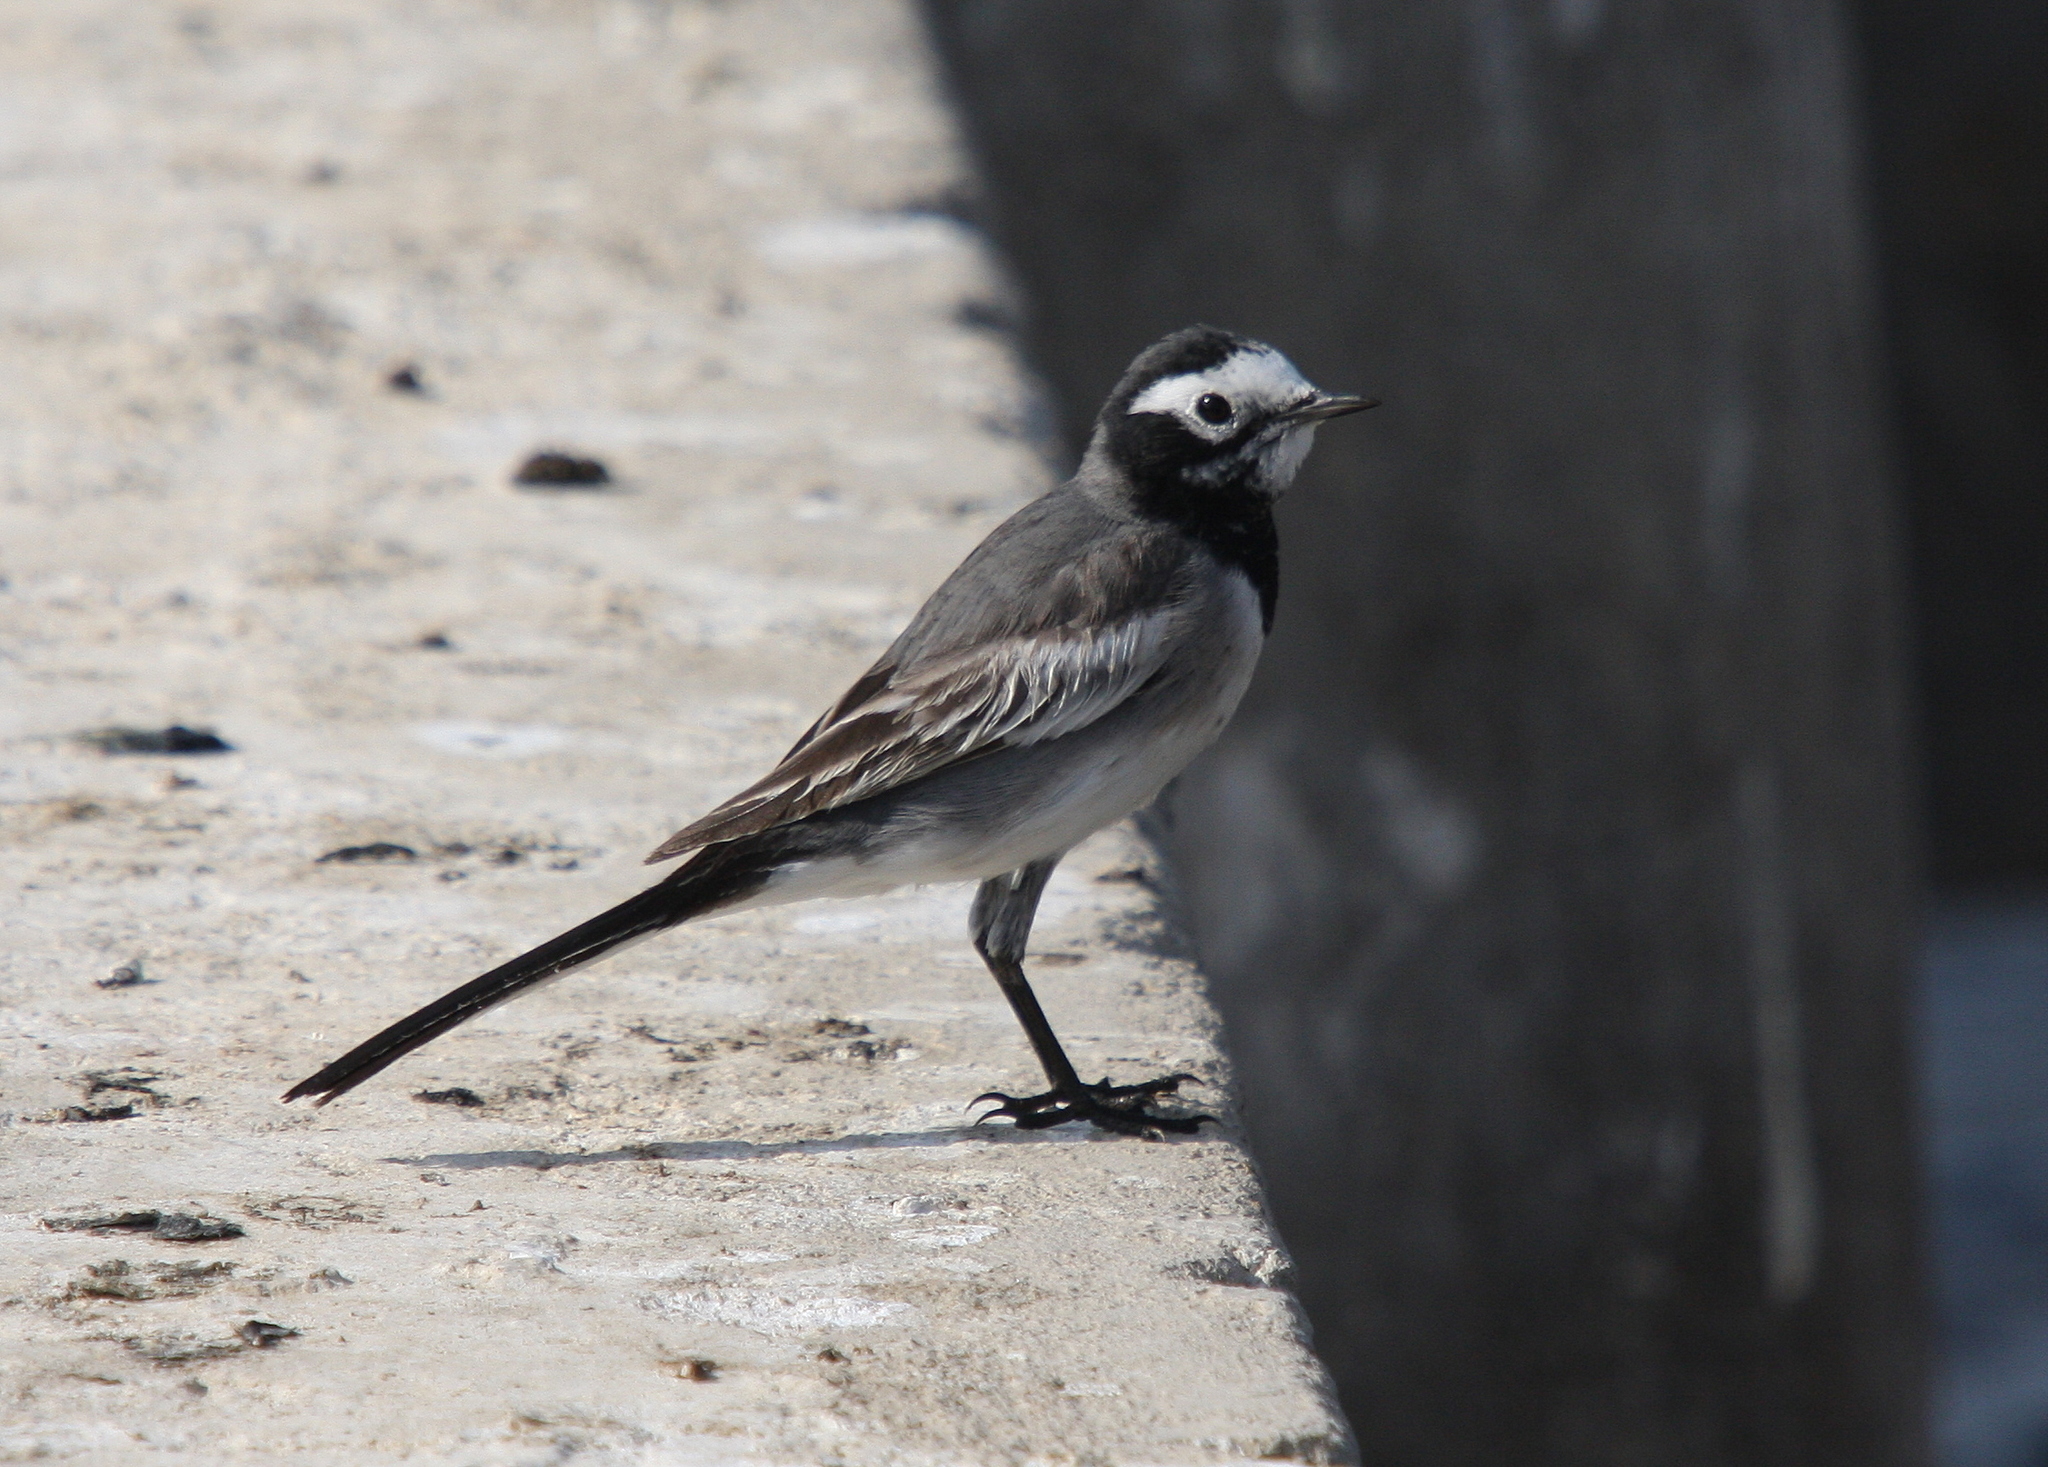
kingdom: Animalia
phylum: Chordata
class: Aves
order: Passeriformes
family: Motacillidae
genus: Motacilla
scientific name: Motacilla alba
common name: White wagtail
